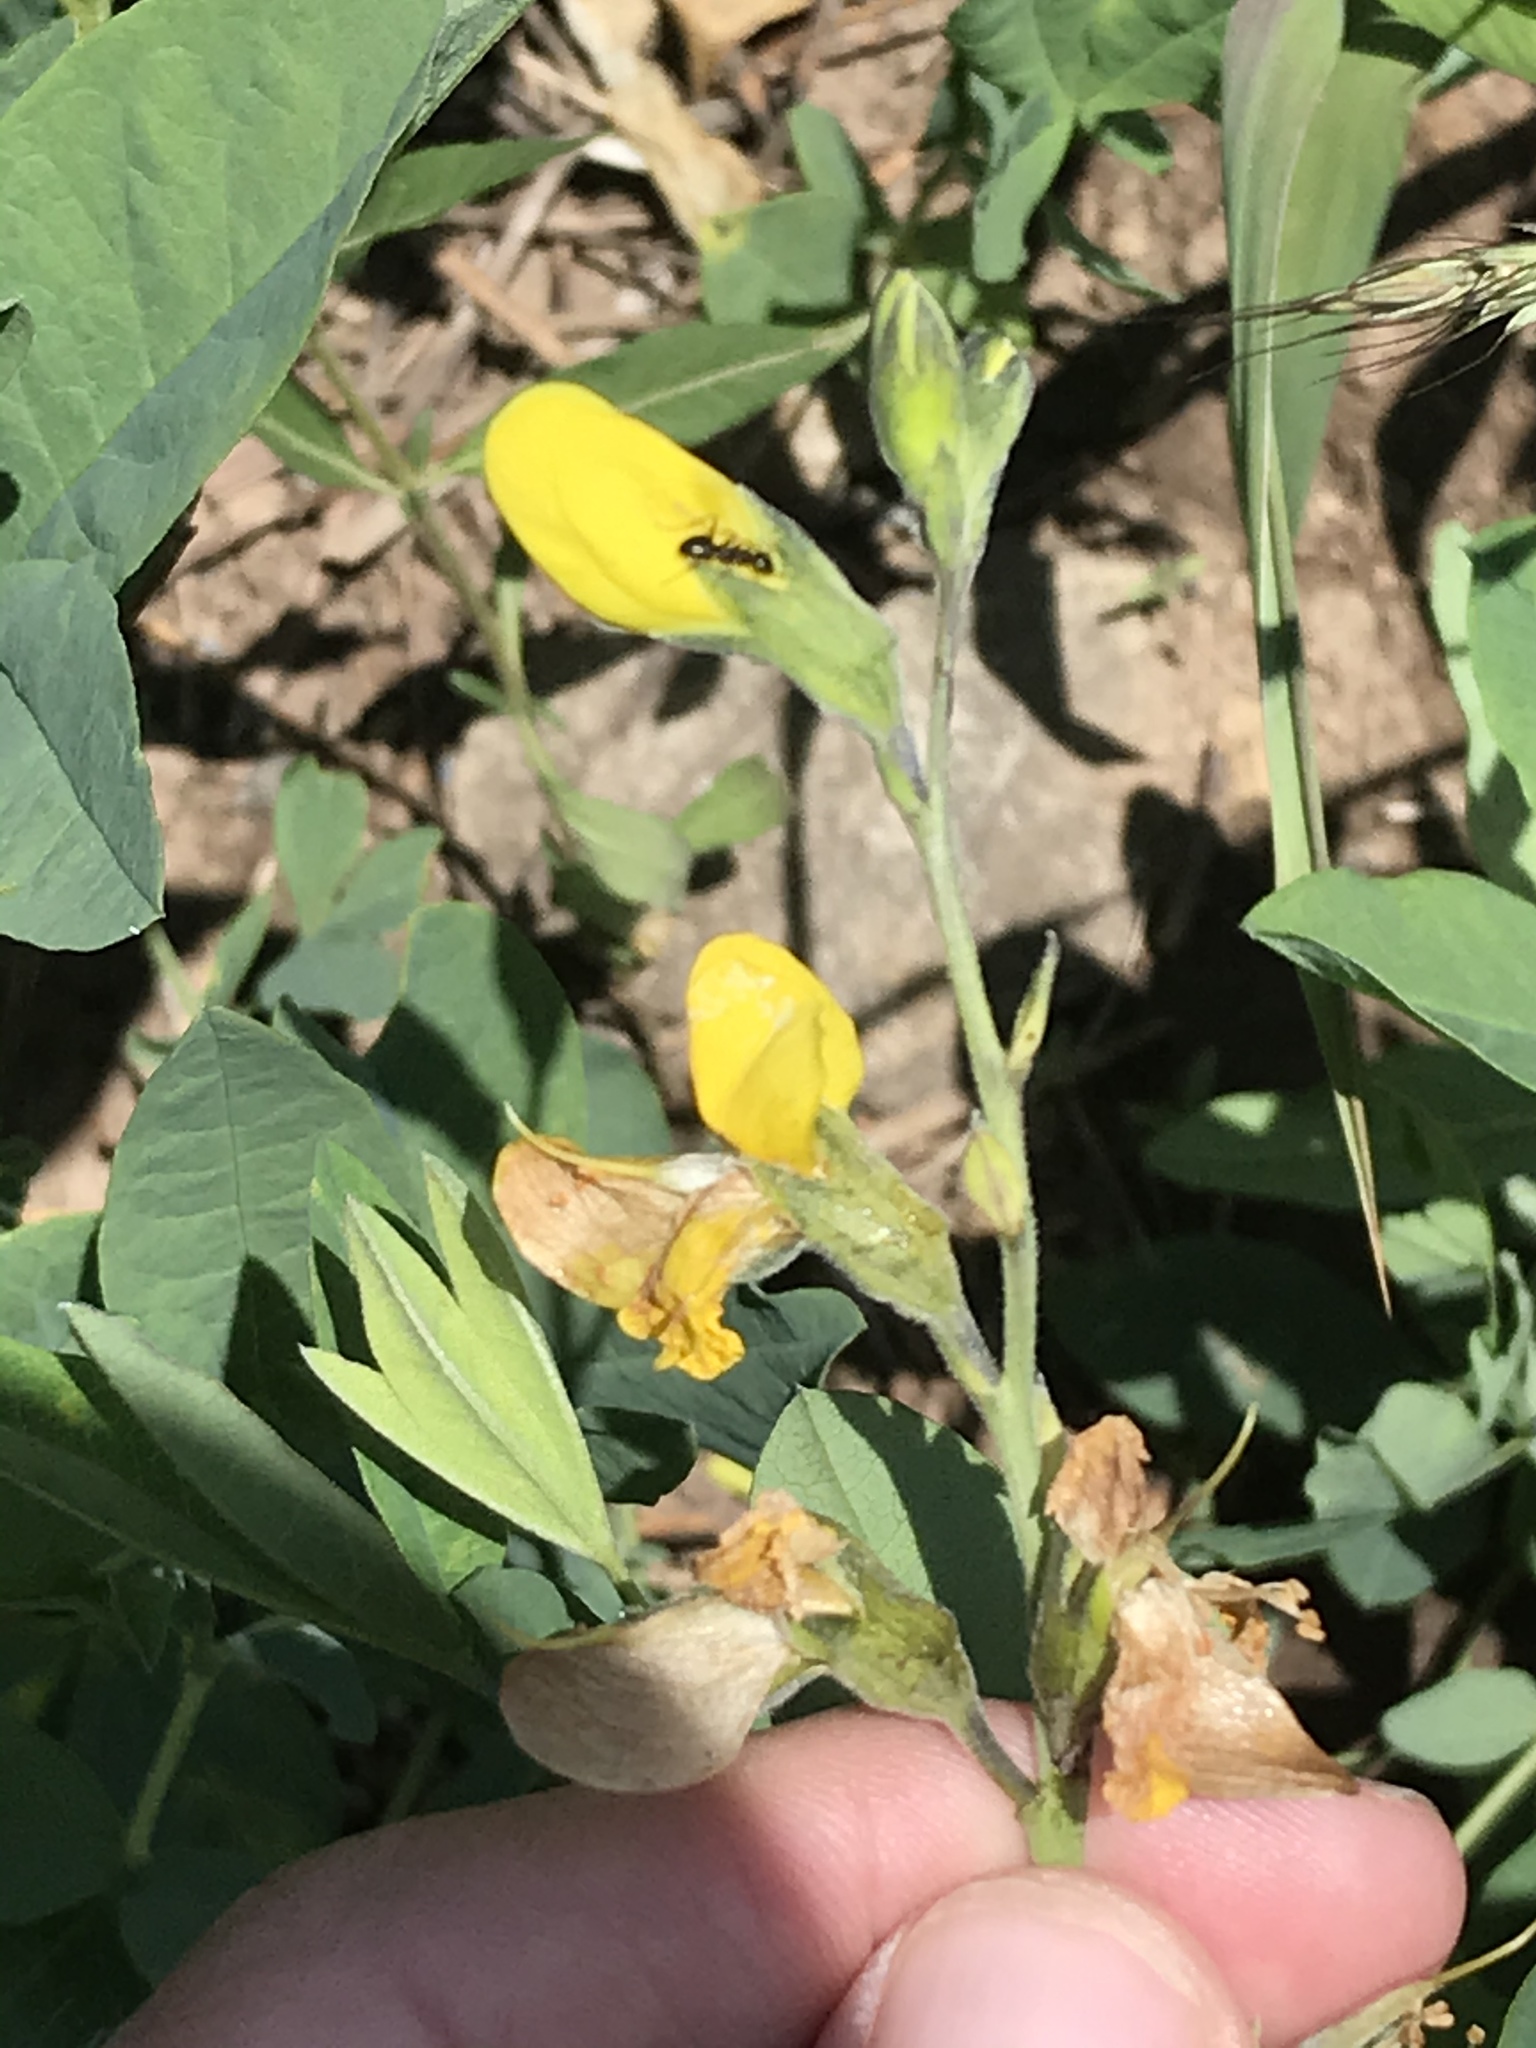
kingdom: Plantae
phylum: Tracheophyta
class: Magnoliopsida
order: Fabales
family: Fabaceae
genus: Thermopsis
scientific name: Thermopsis montana
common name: False lupin
